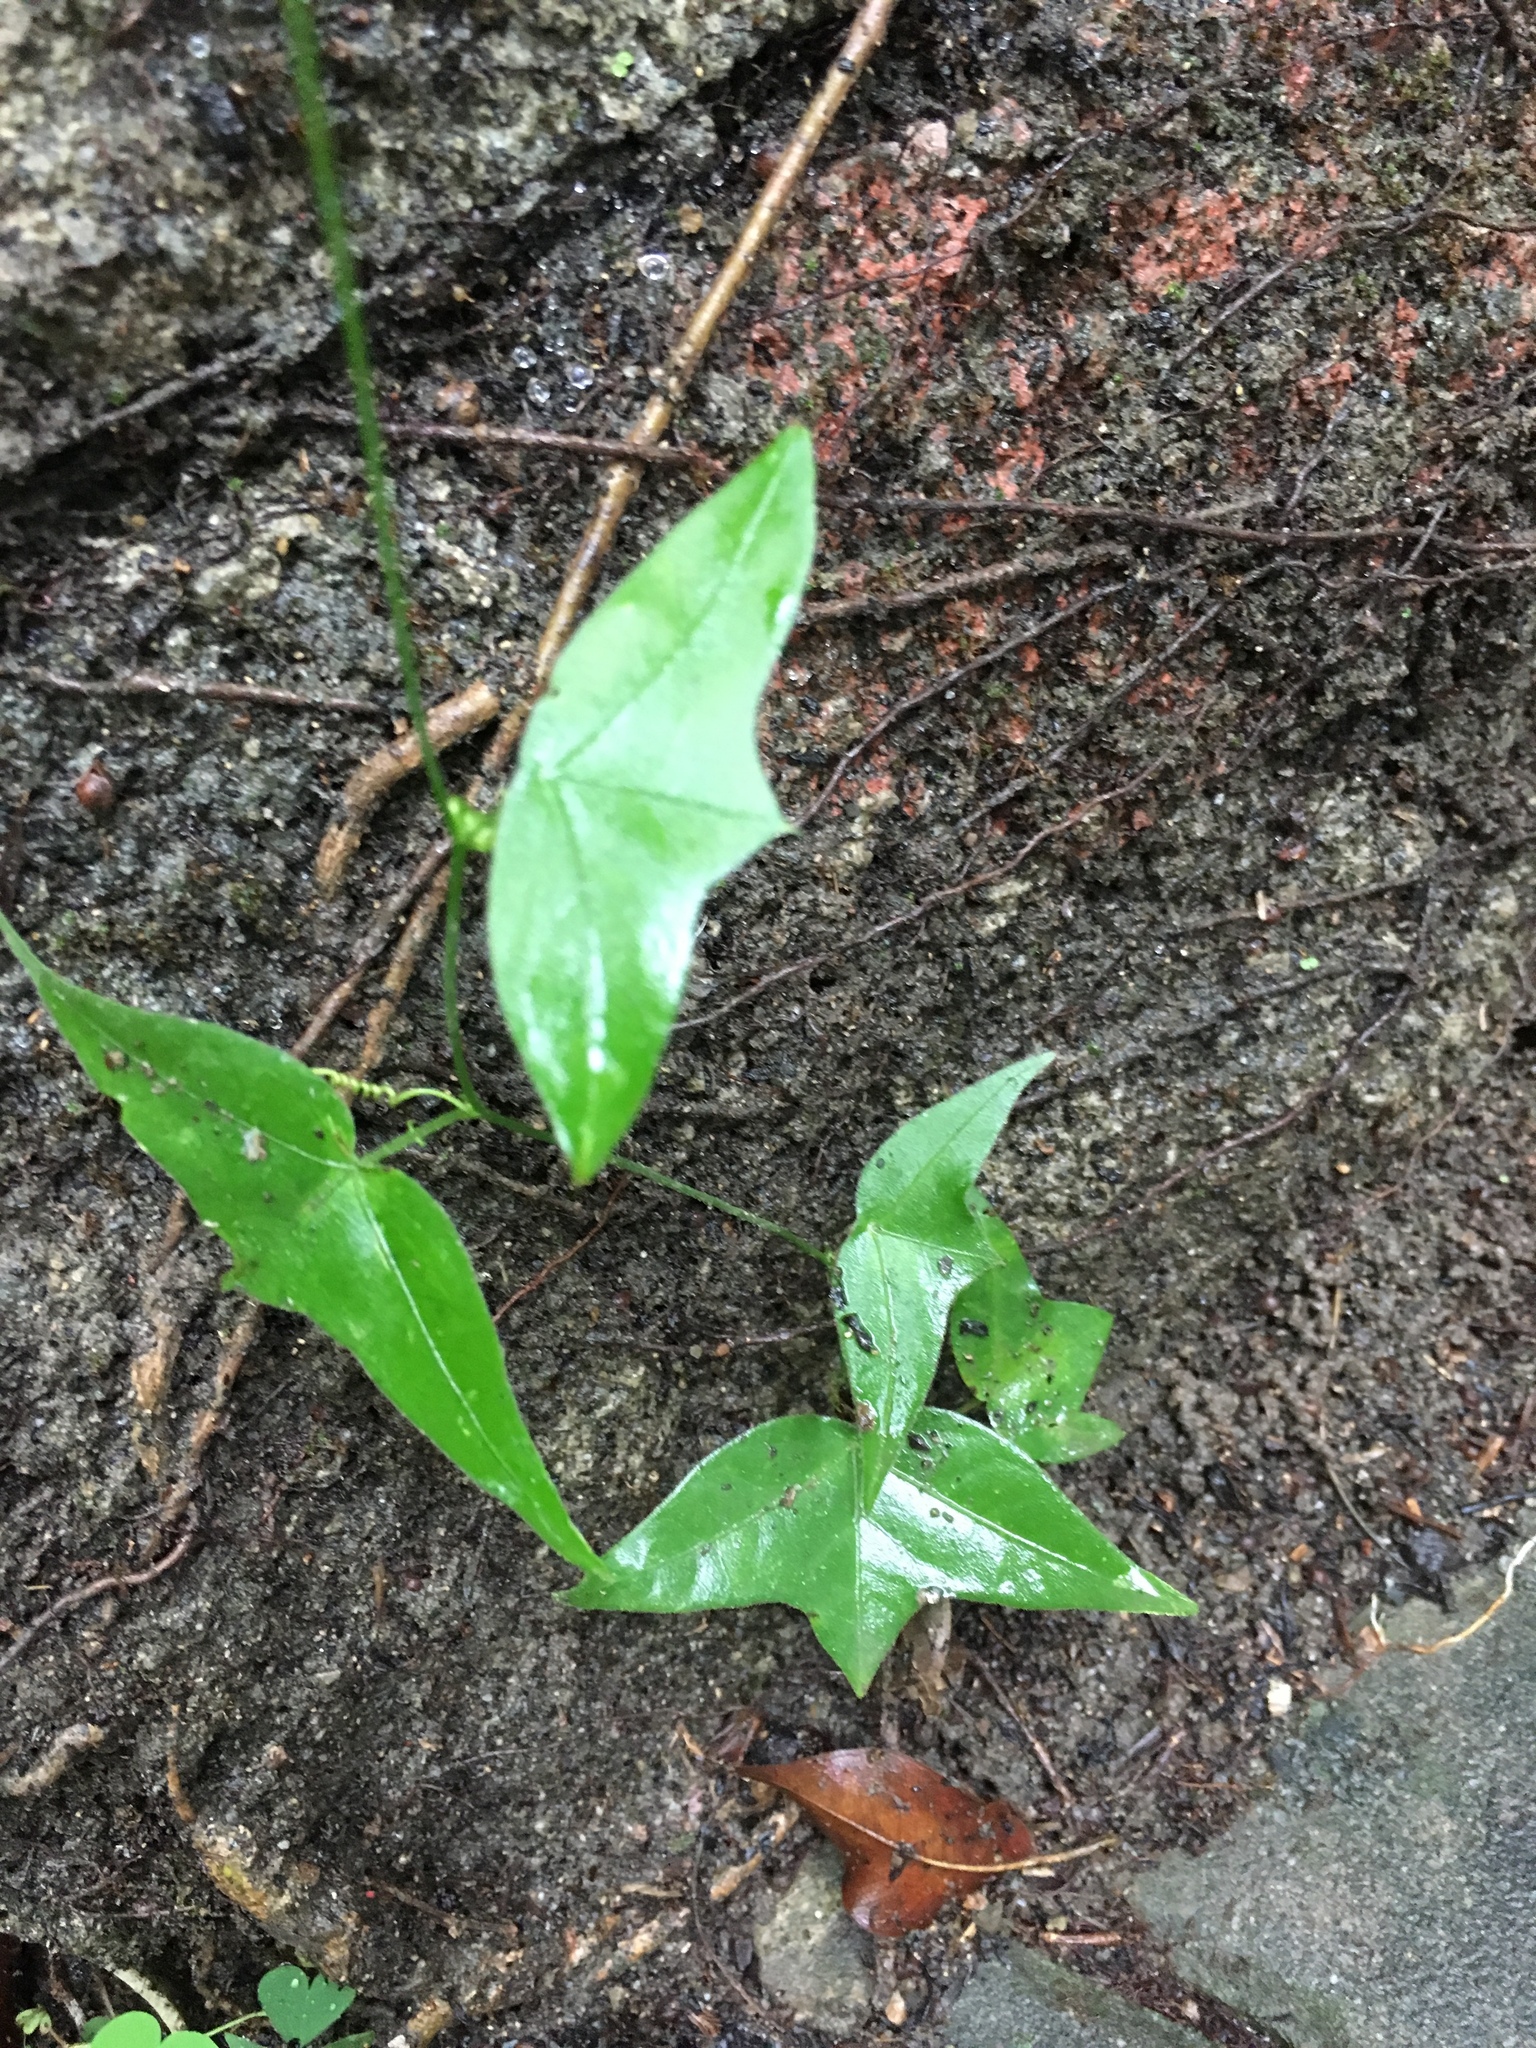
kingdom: Plantae
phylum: Tracheophyta
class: Magnoliopsida
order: Malpighiales
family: Passifloraceae
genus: Passiflora
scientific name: Passiflora suberosa
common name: Wild passionfruit
